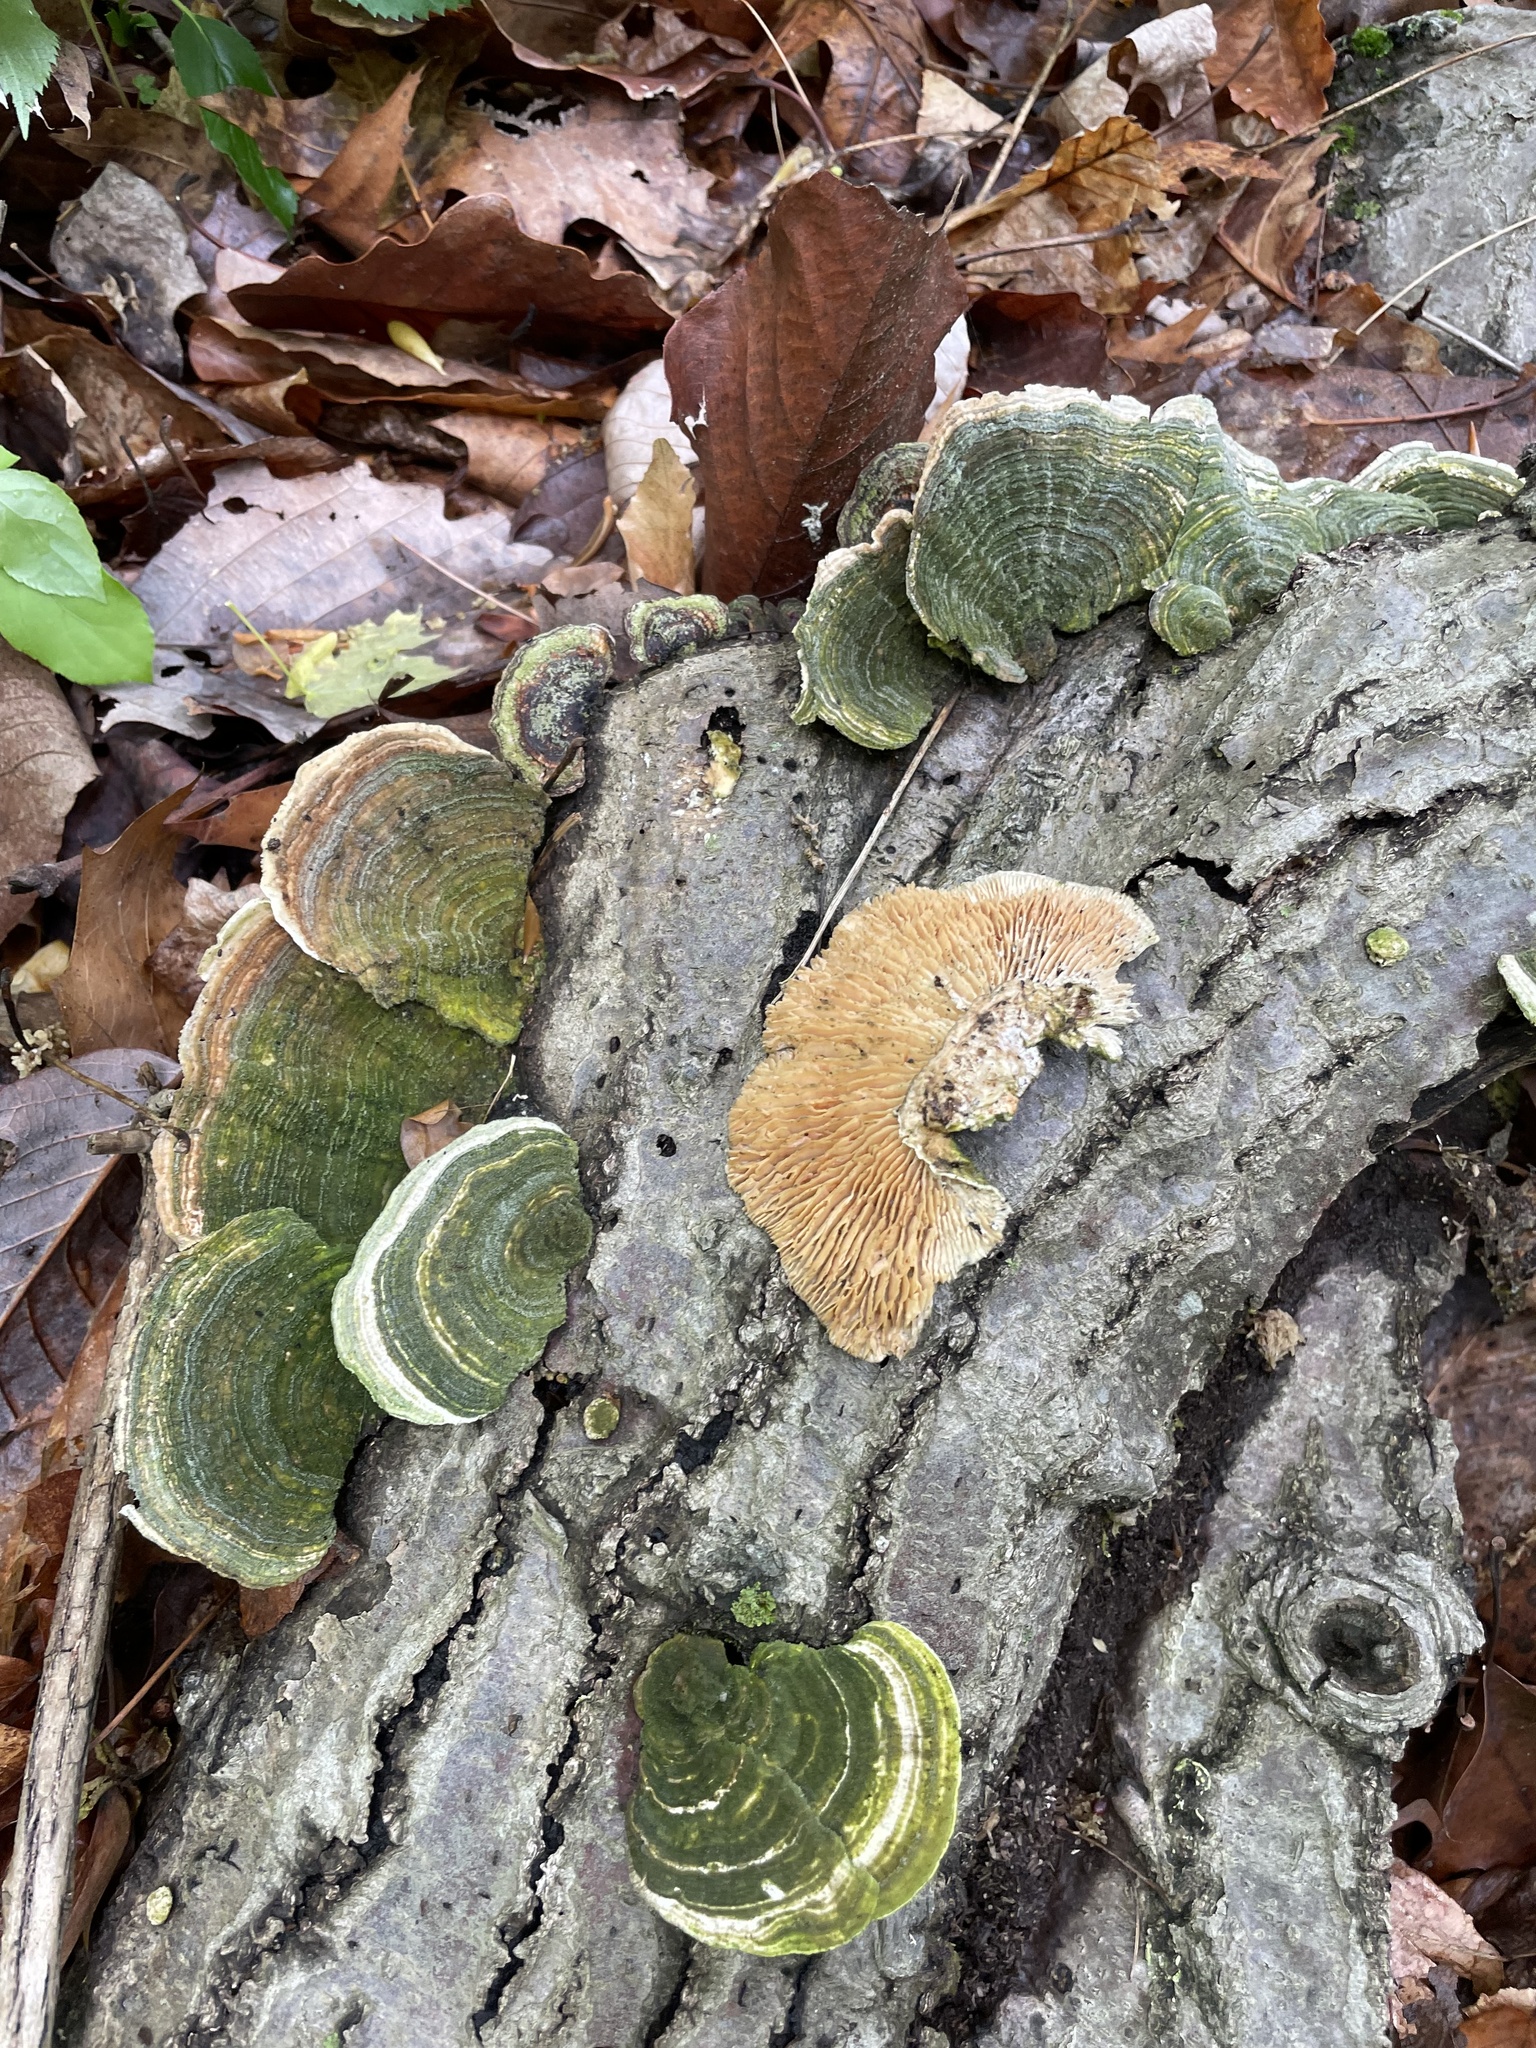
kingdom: Fungi
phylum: Basidiomycota
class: Agaricomycetes
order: Polyporales
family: Polyporaceae
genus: Lenzites
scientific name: Lenzites betulinus
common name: Birch mazegill
